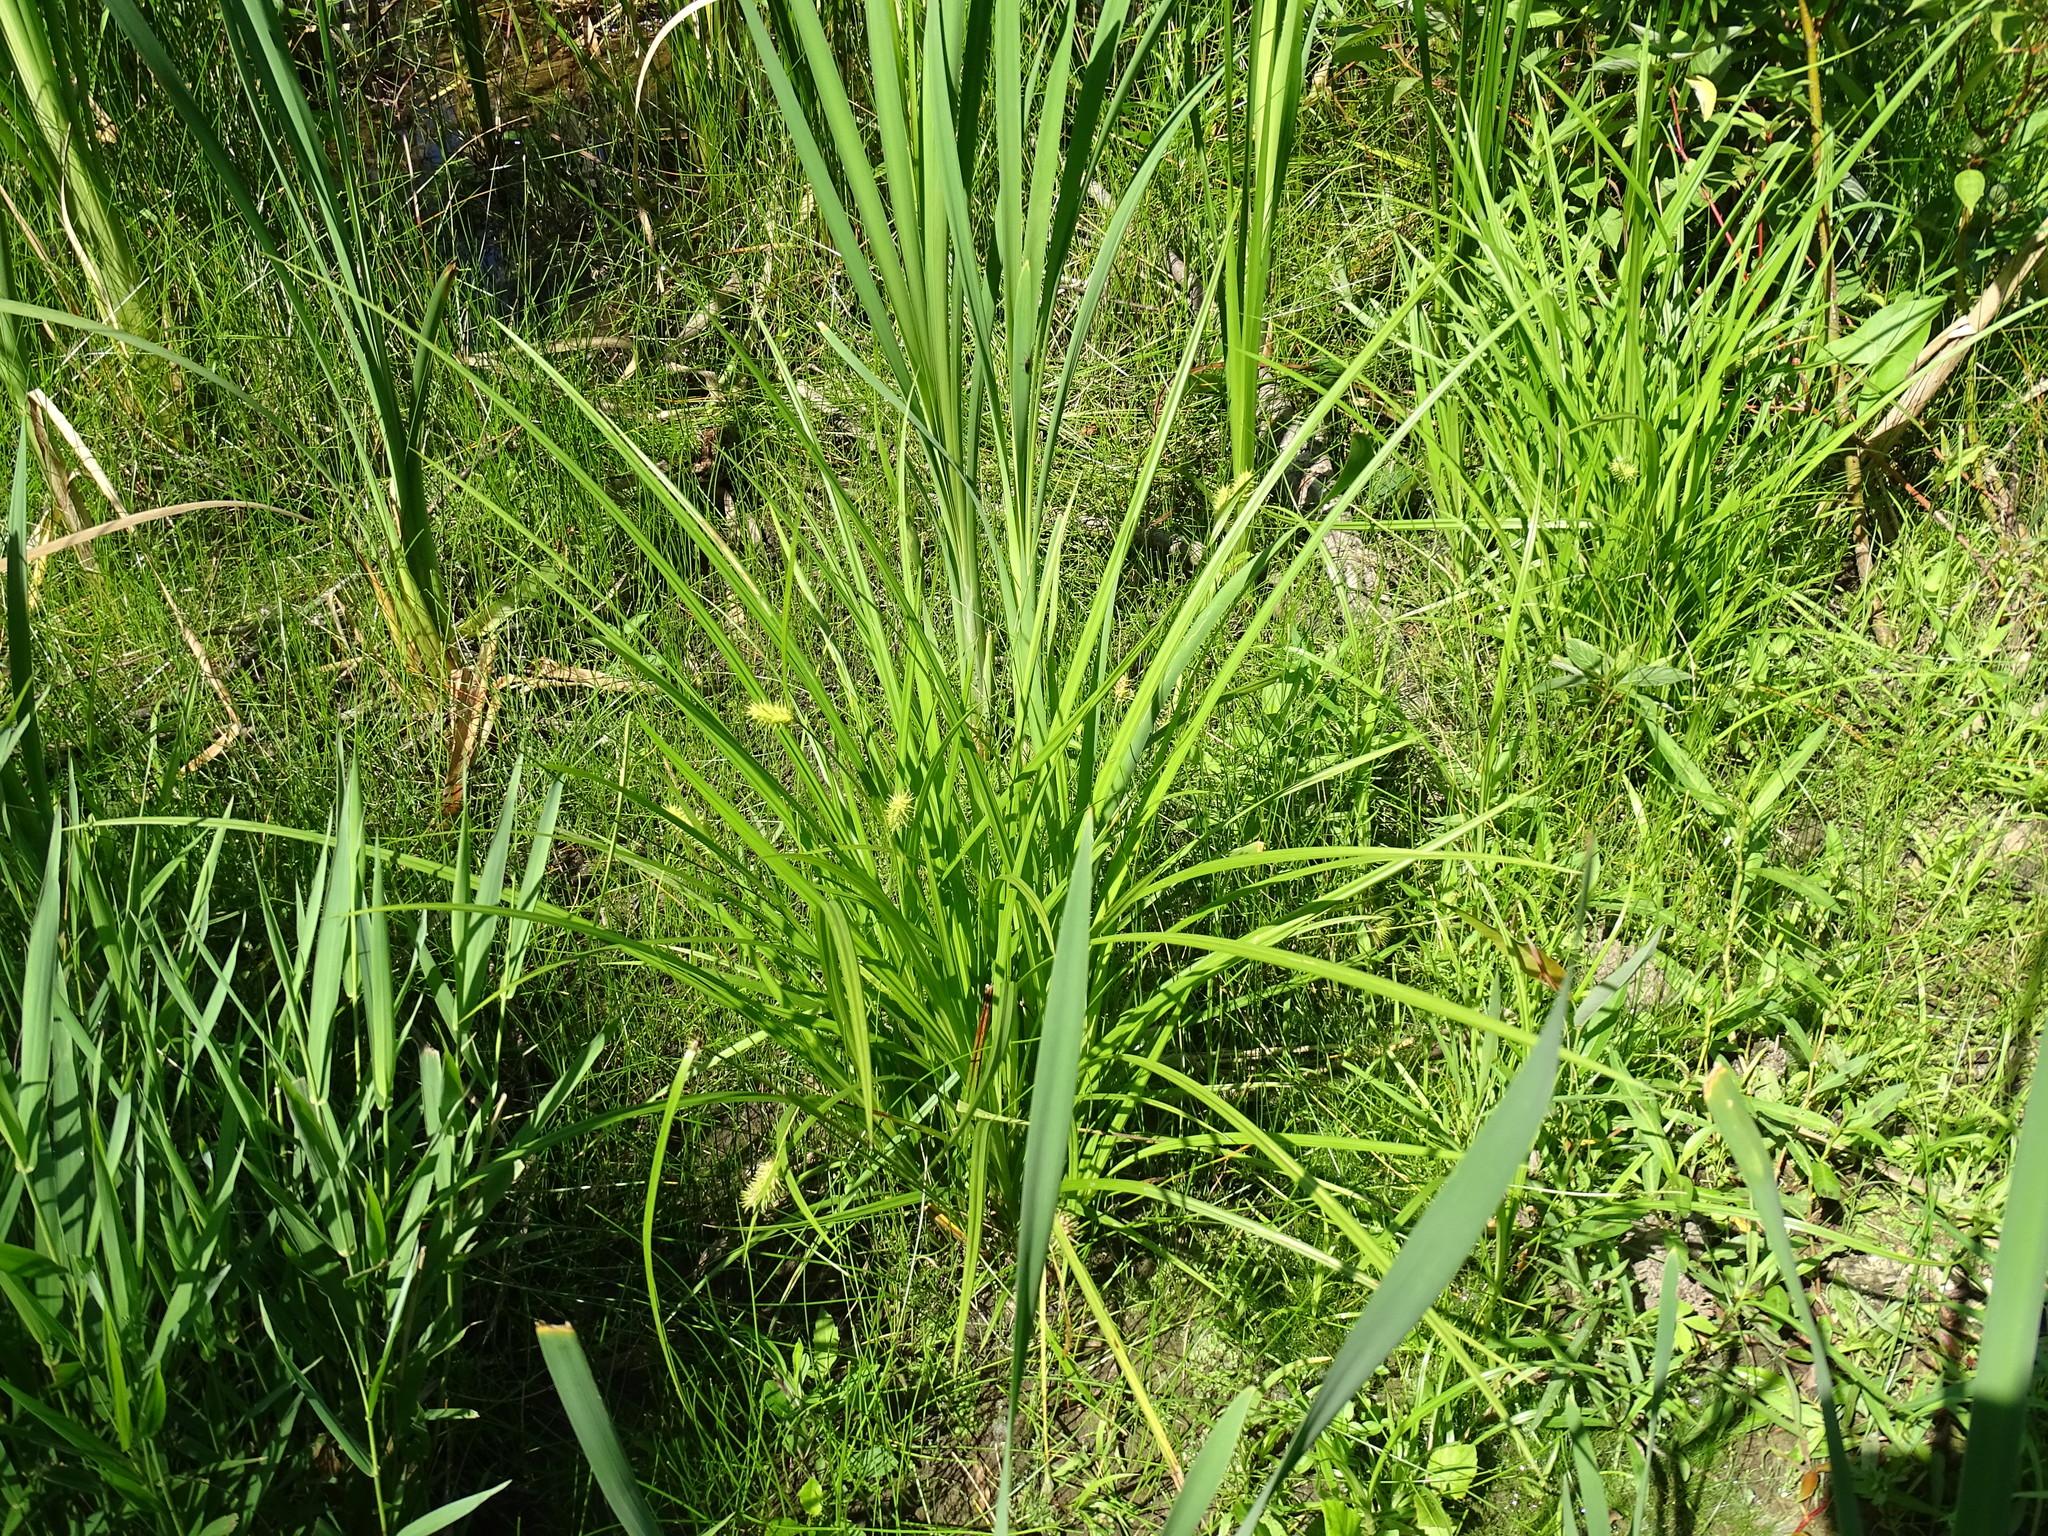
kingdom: Plantae
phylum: Tracheophyta
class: Liliopsida
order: Poales
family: Cyperaceae
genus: Carex
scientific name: Carex hystericina
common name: Bottlebrush sedge
